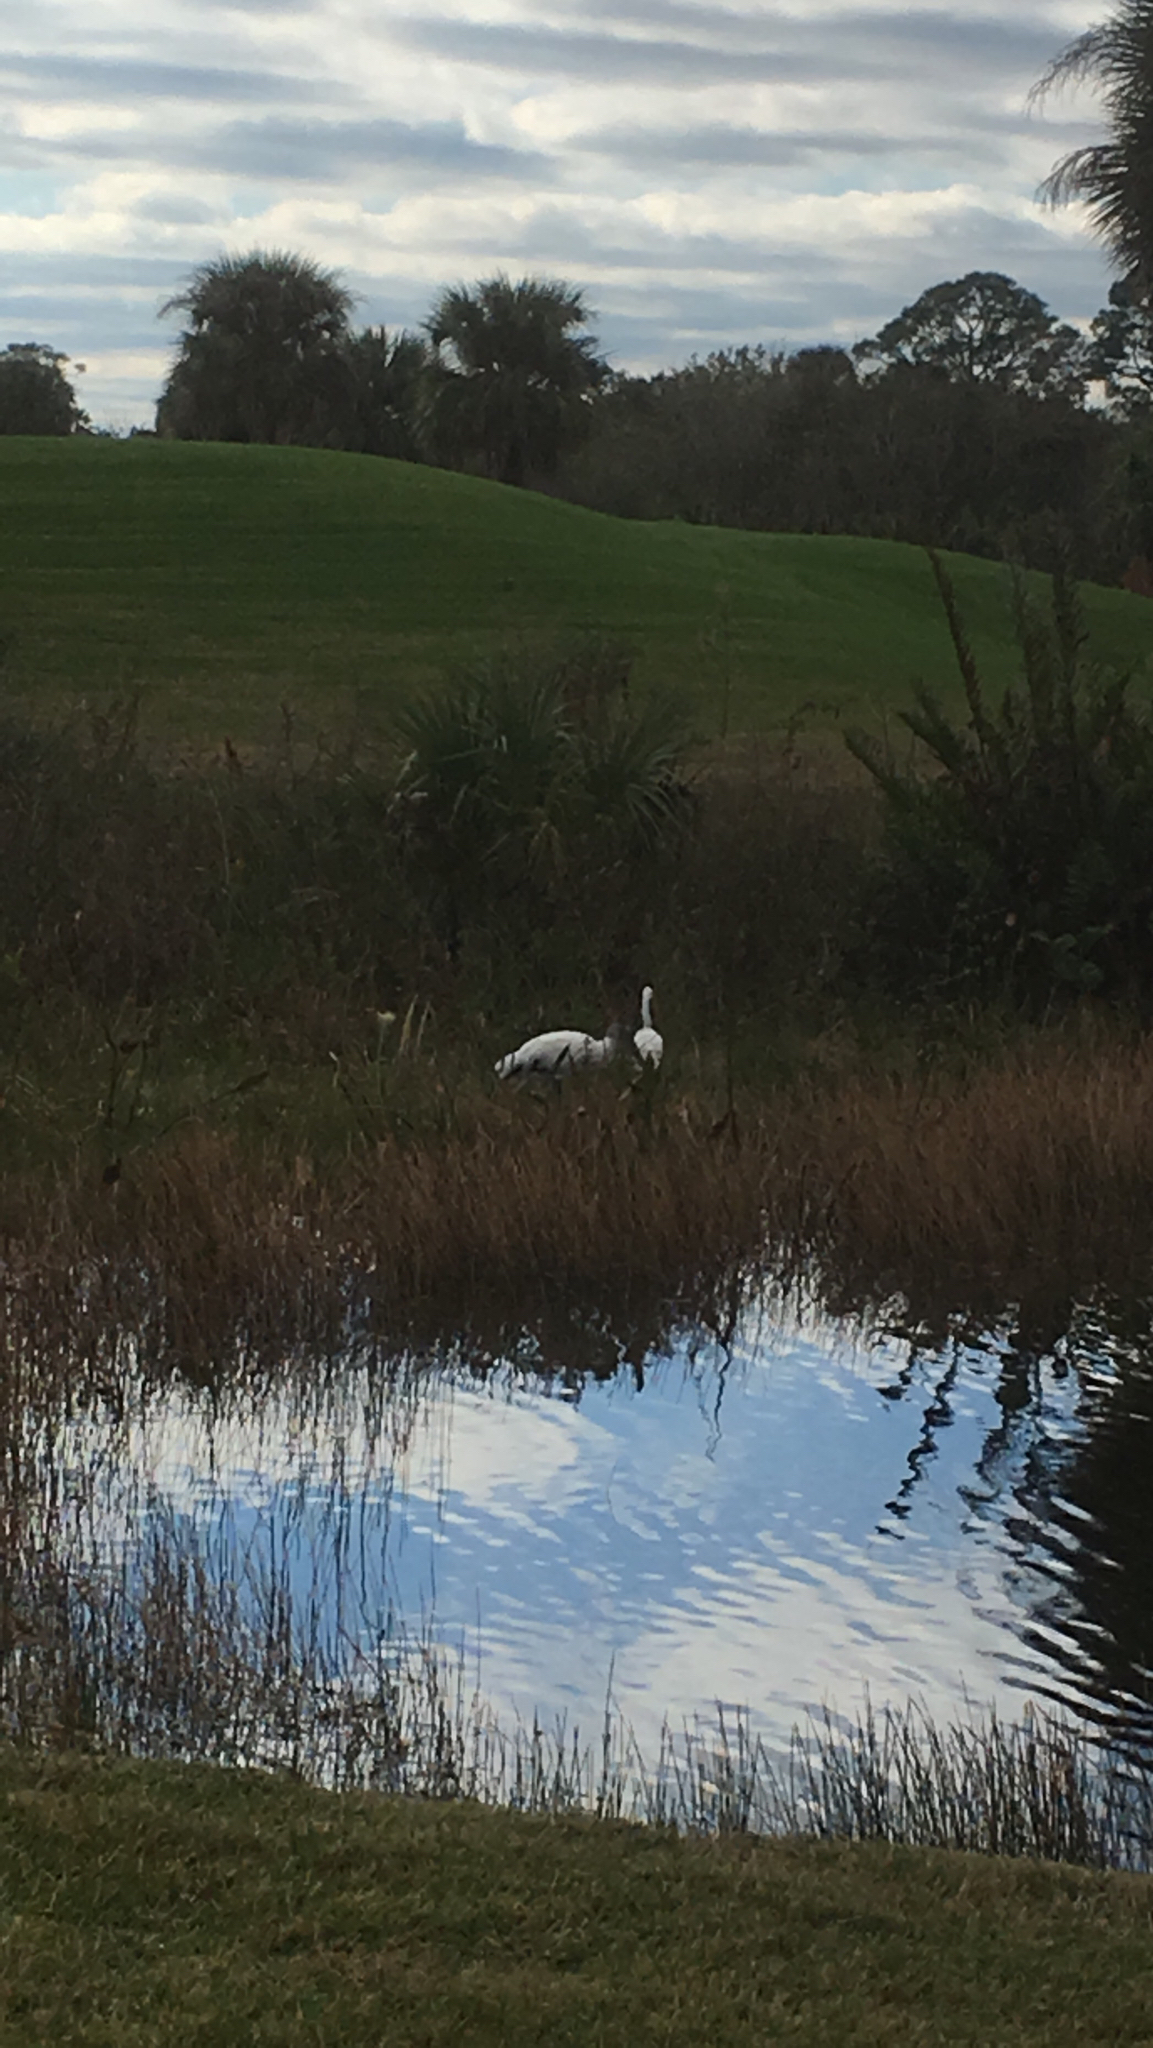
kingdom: Animalia
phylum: Chordata
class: Aves
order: Ciconiiformes
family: Ciconiidae
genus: Mycteria
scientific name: Mycteria americana
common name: Wood stork
